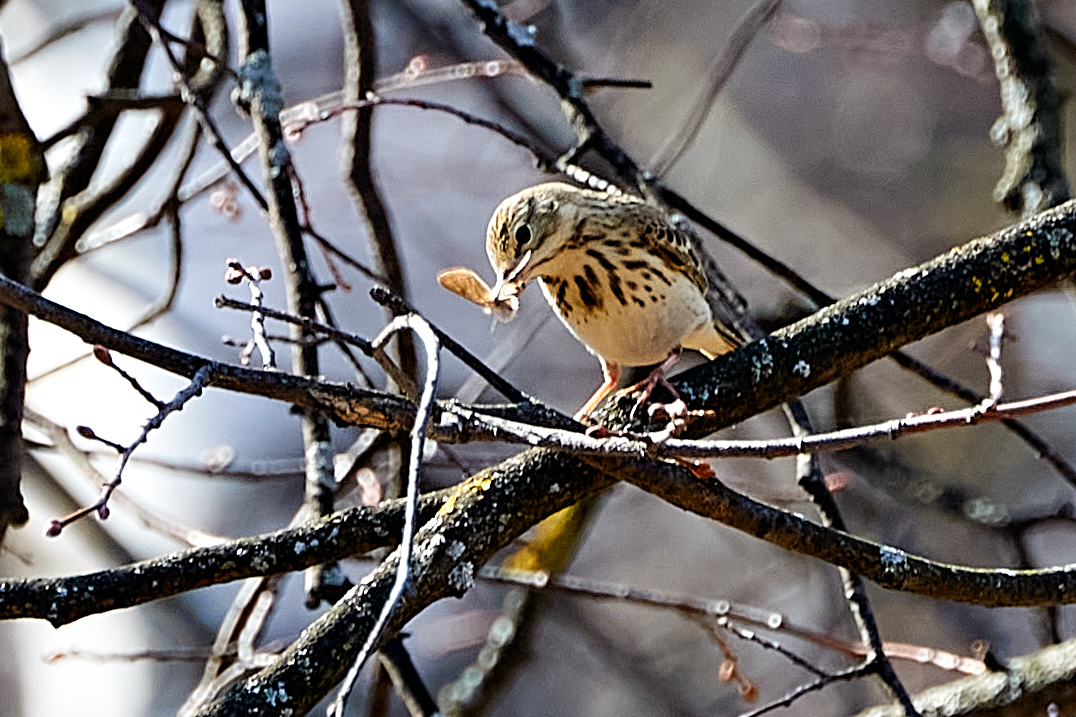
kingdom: Animalia
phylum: Chordata
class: Aves
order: Passeriformes
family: Motacillidae
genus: Anthus
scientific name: Anthus trivialis
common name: Tree pipit
